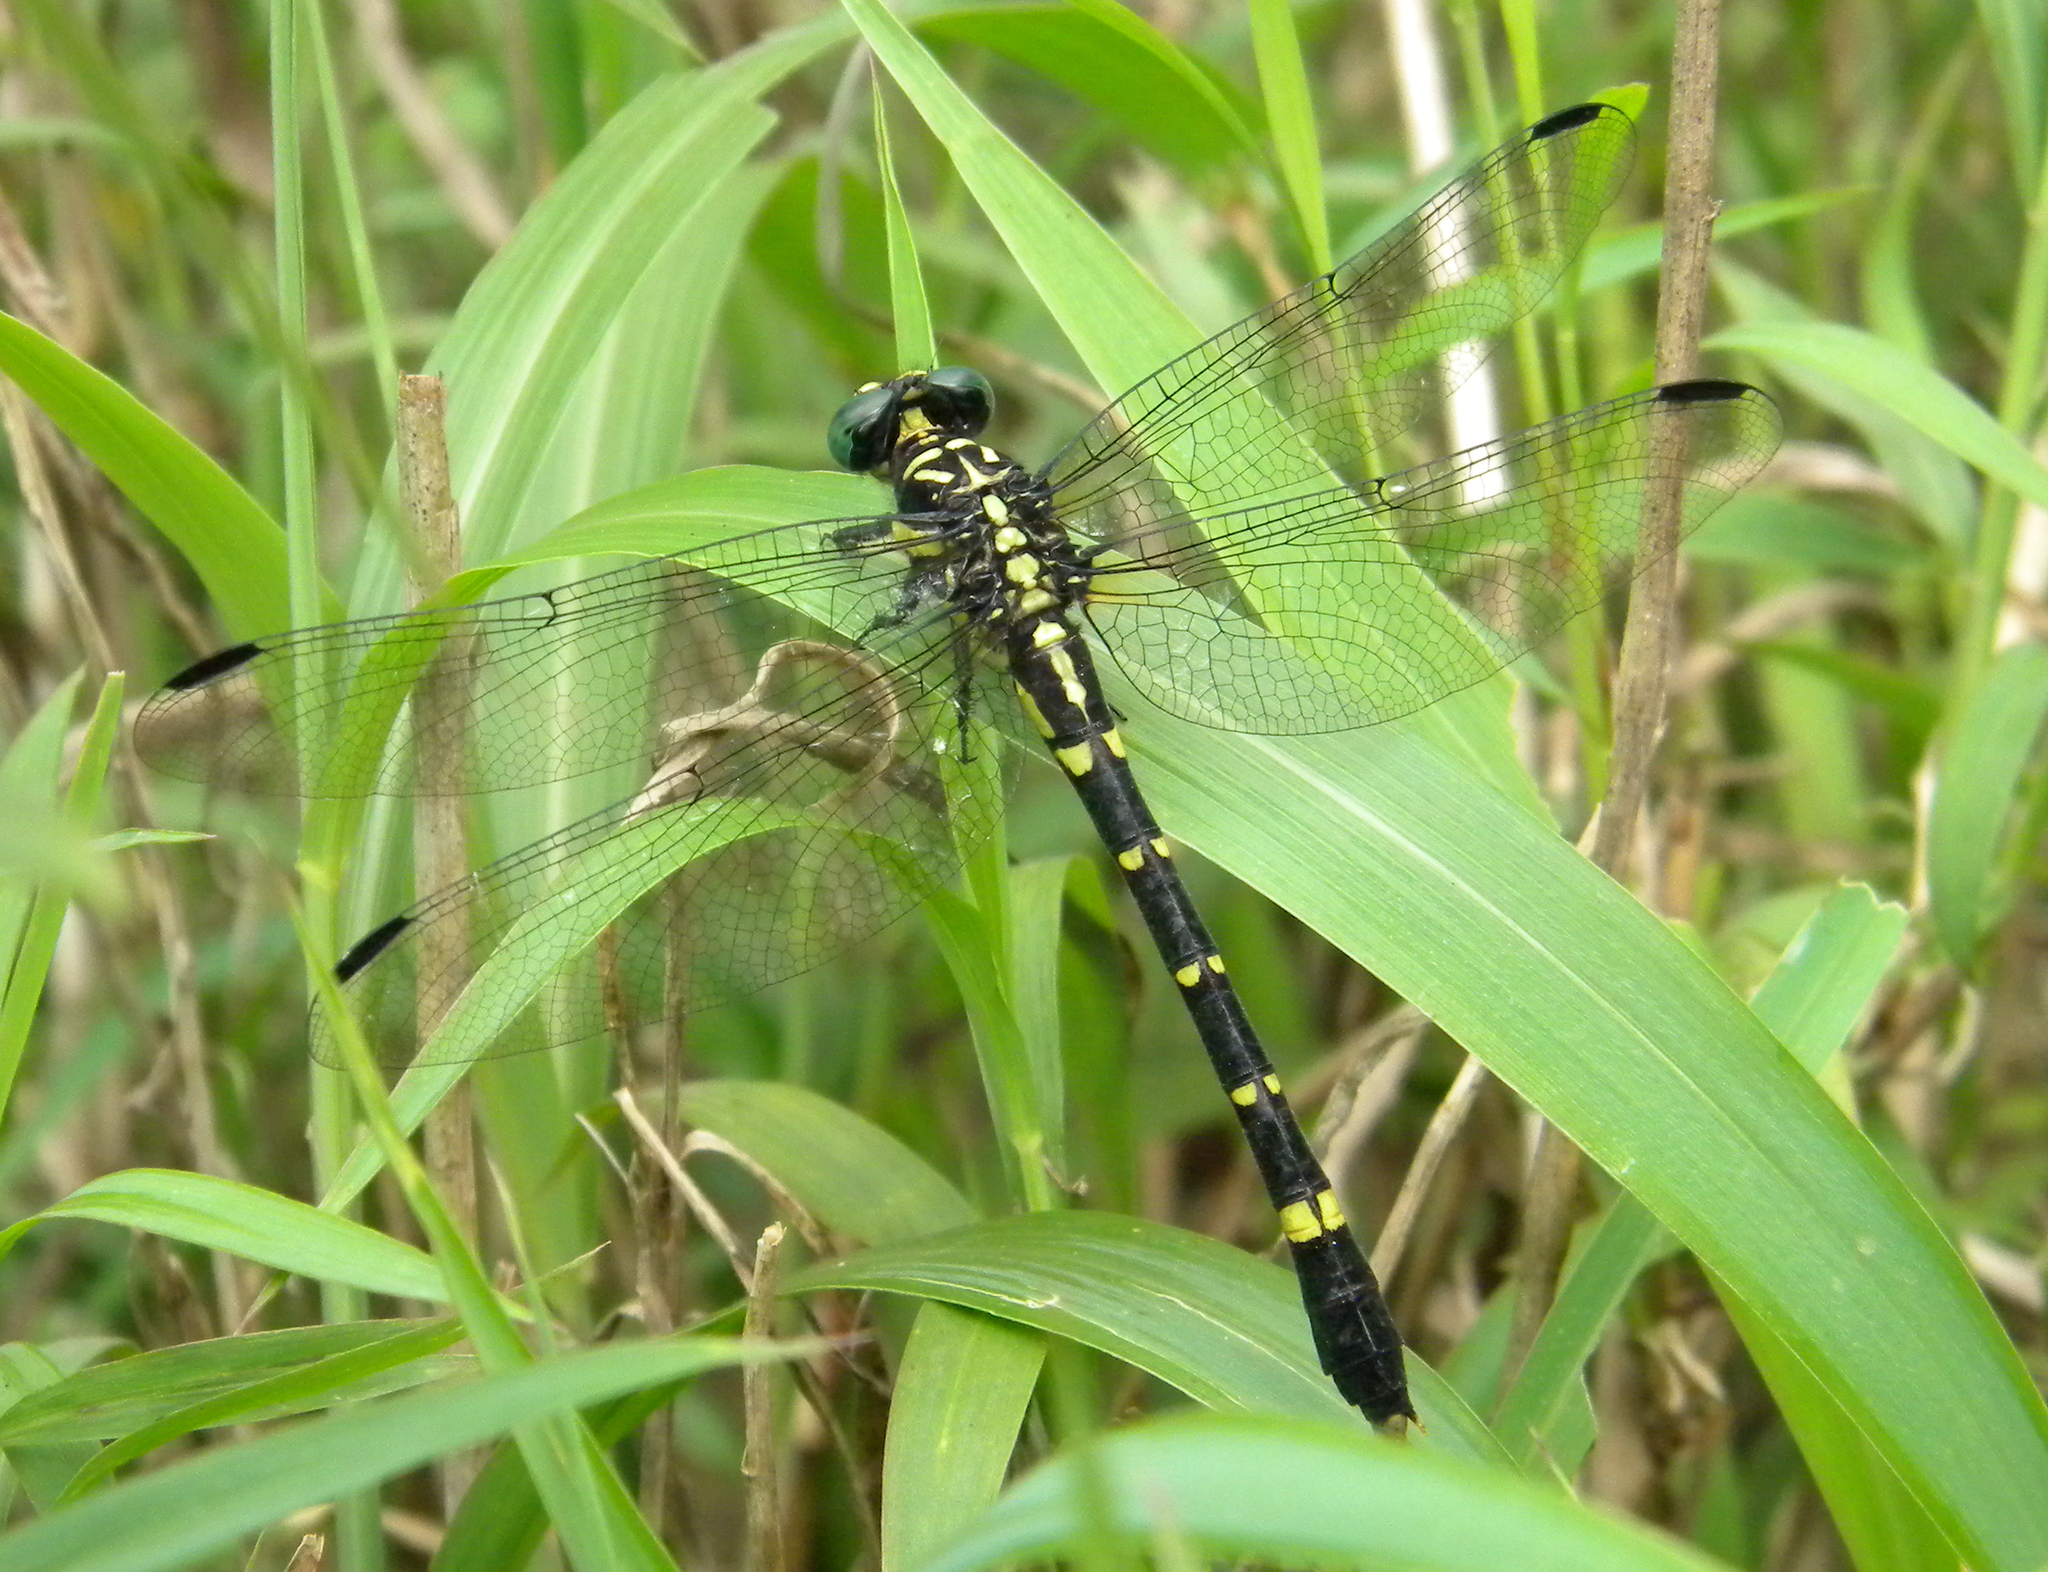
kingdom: Animalia
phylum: Arthropoda
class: Insecta
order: Odonata
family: Gomphidae
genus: Davidioides
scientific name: Davidioides martini
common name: Syrandiri clubtail
